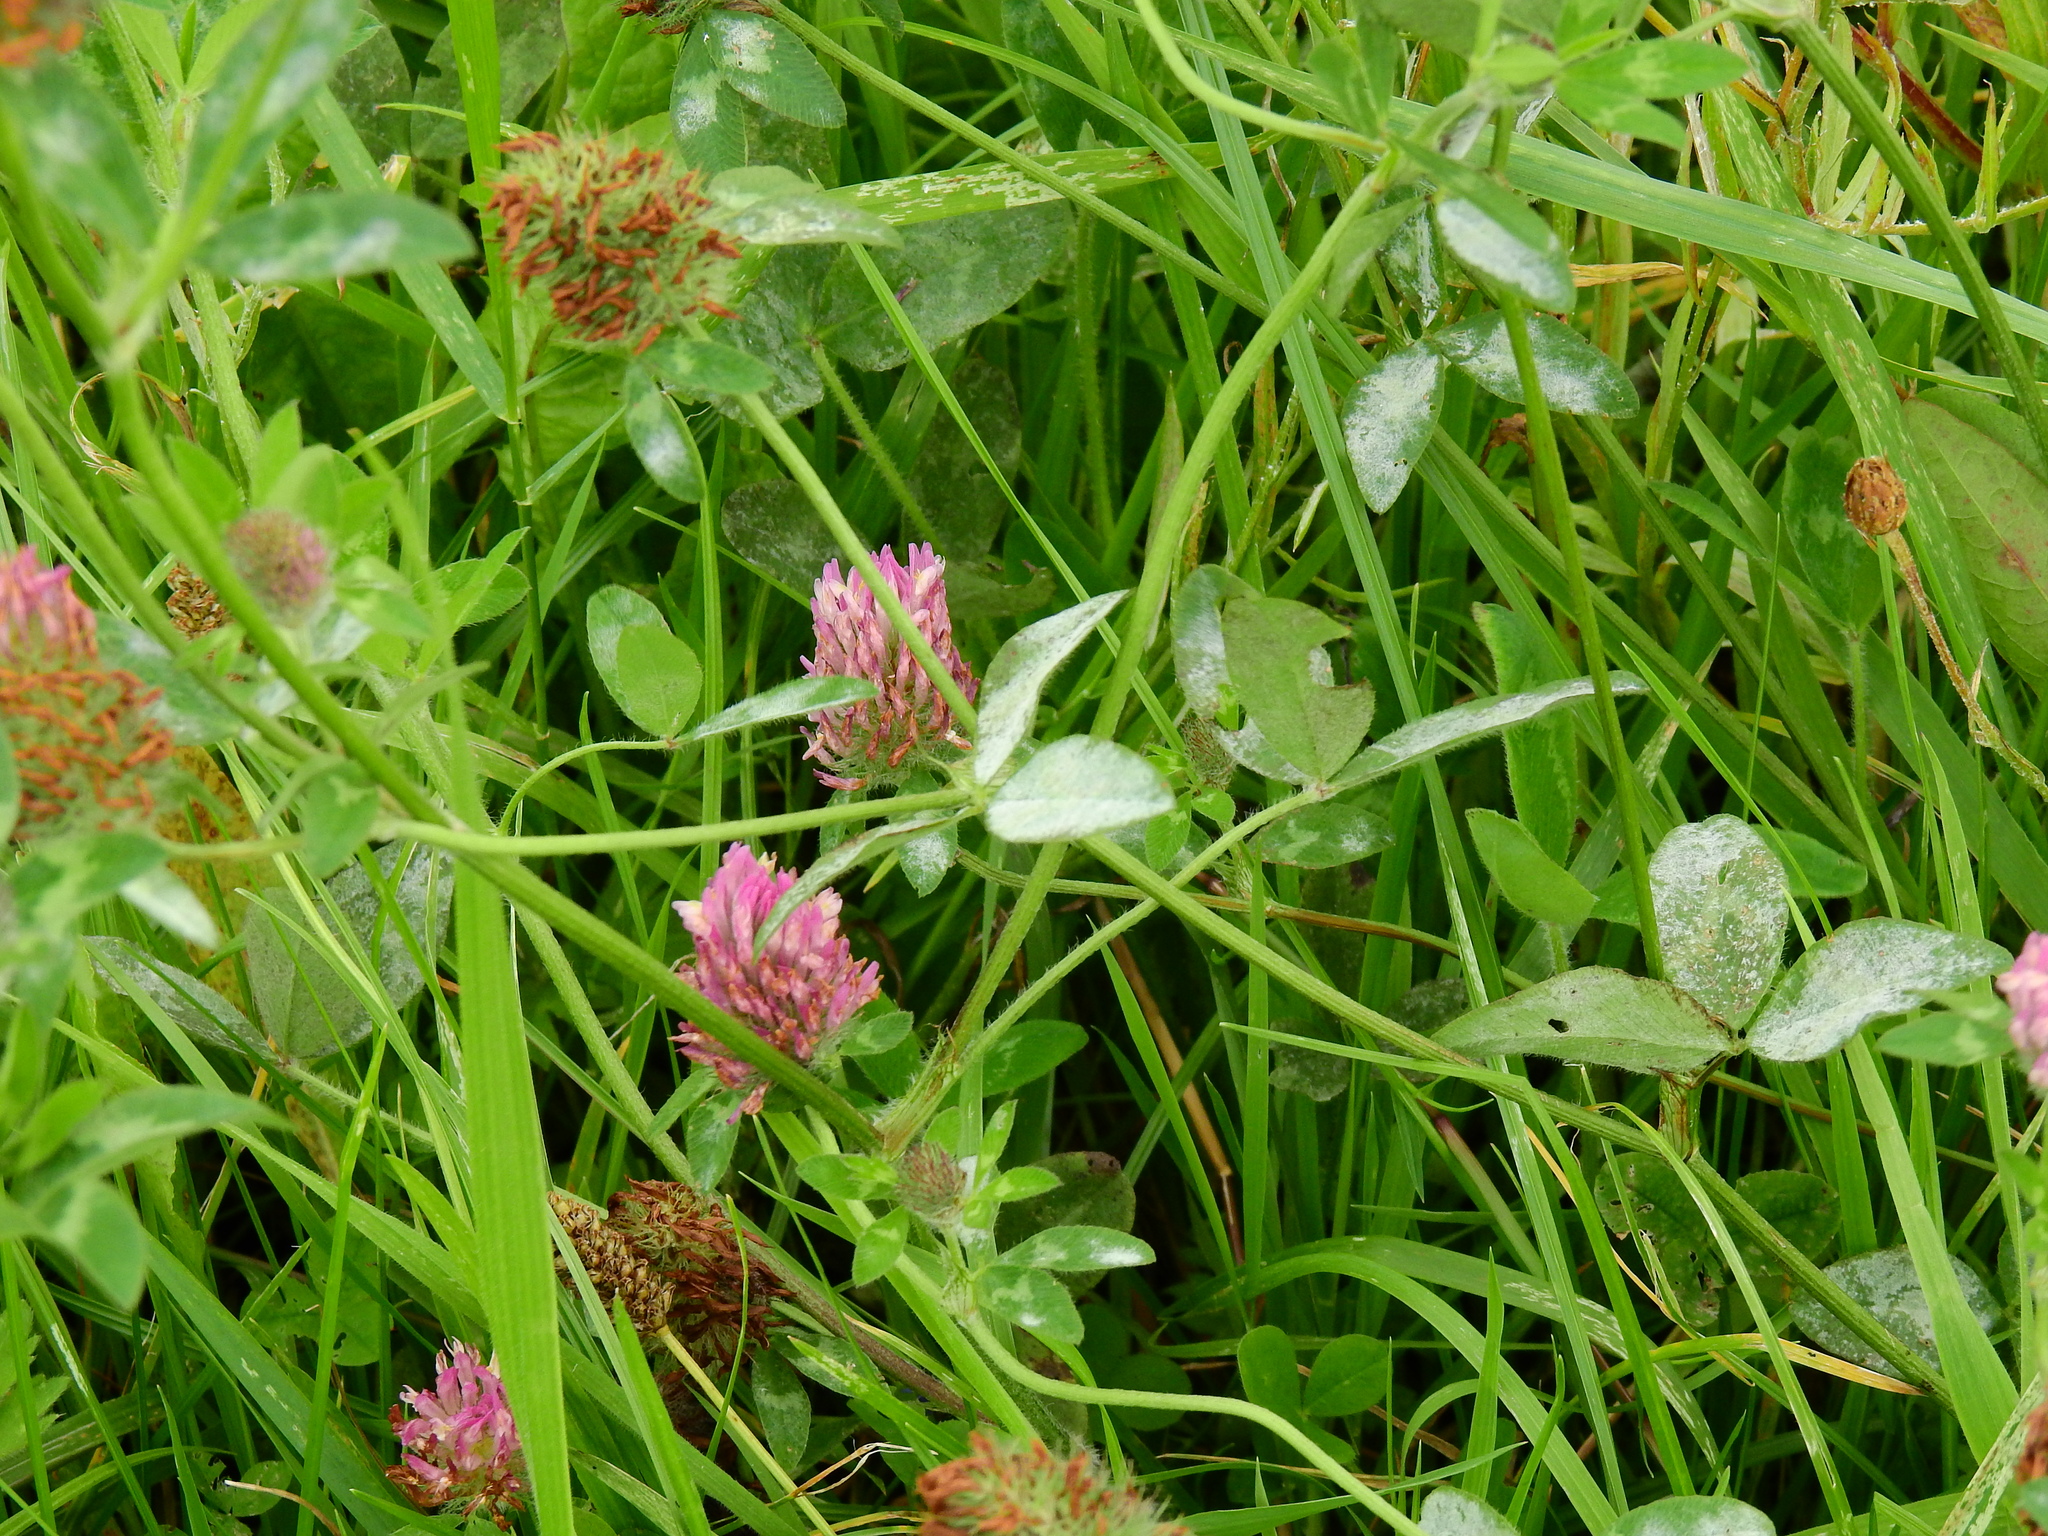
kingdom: Plantae
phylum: Tracheophyta
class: Magnoliopsida
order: Fabales
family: Fabaceae
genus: Trifolium
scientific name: Trifolium pratense
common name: Red clover
